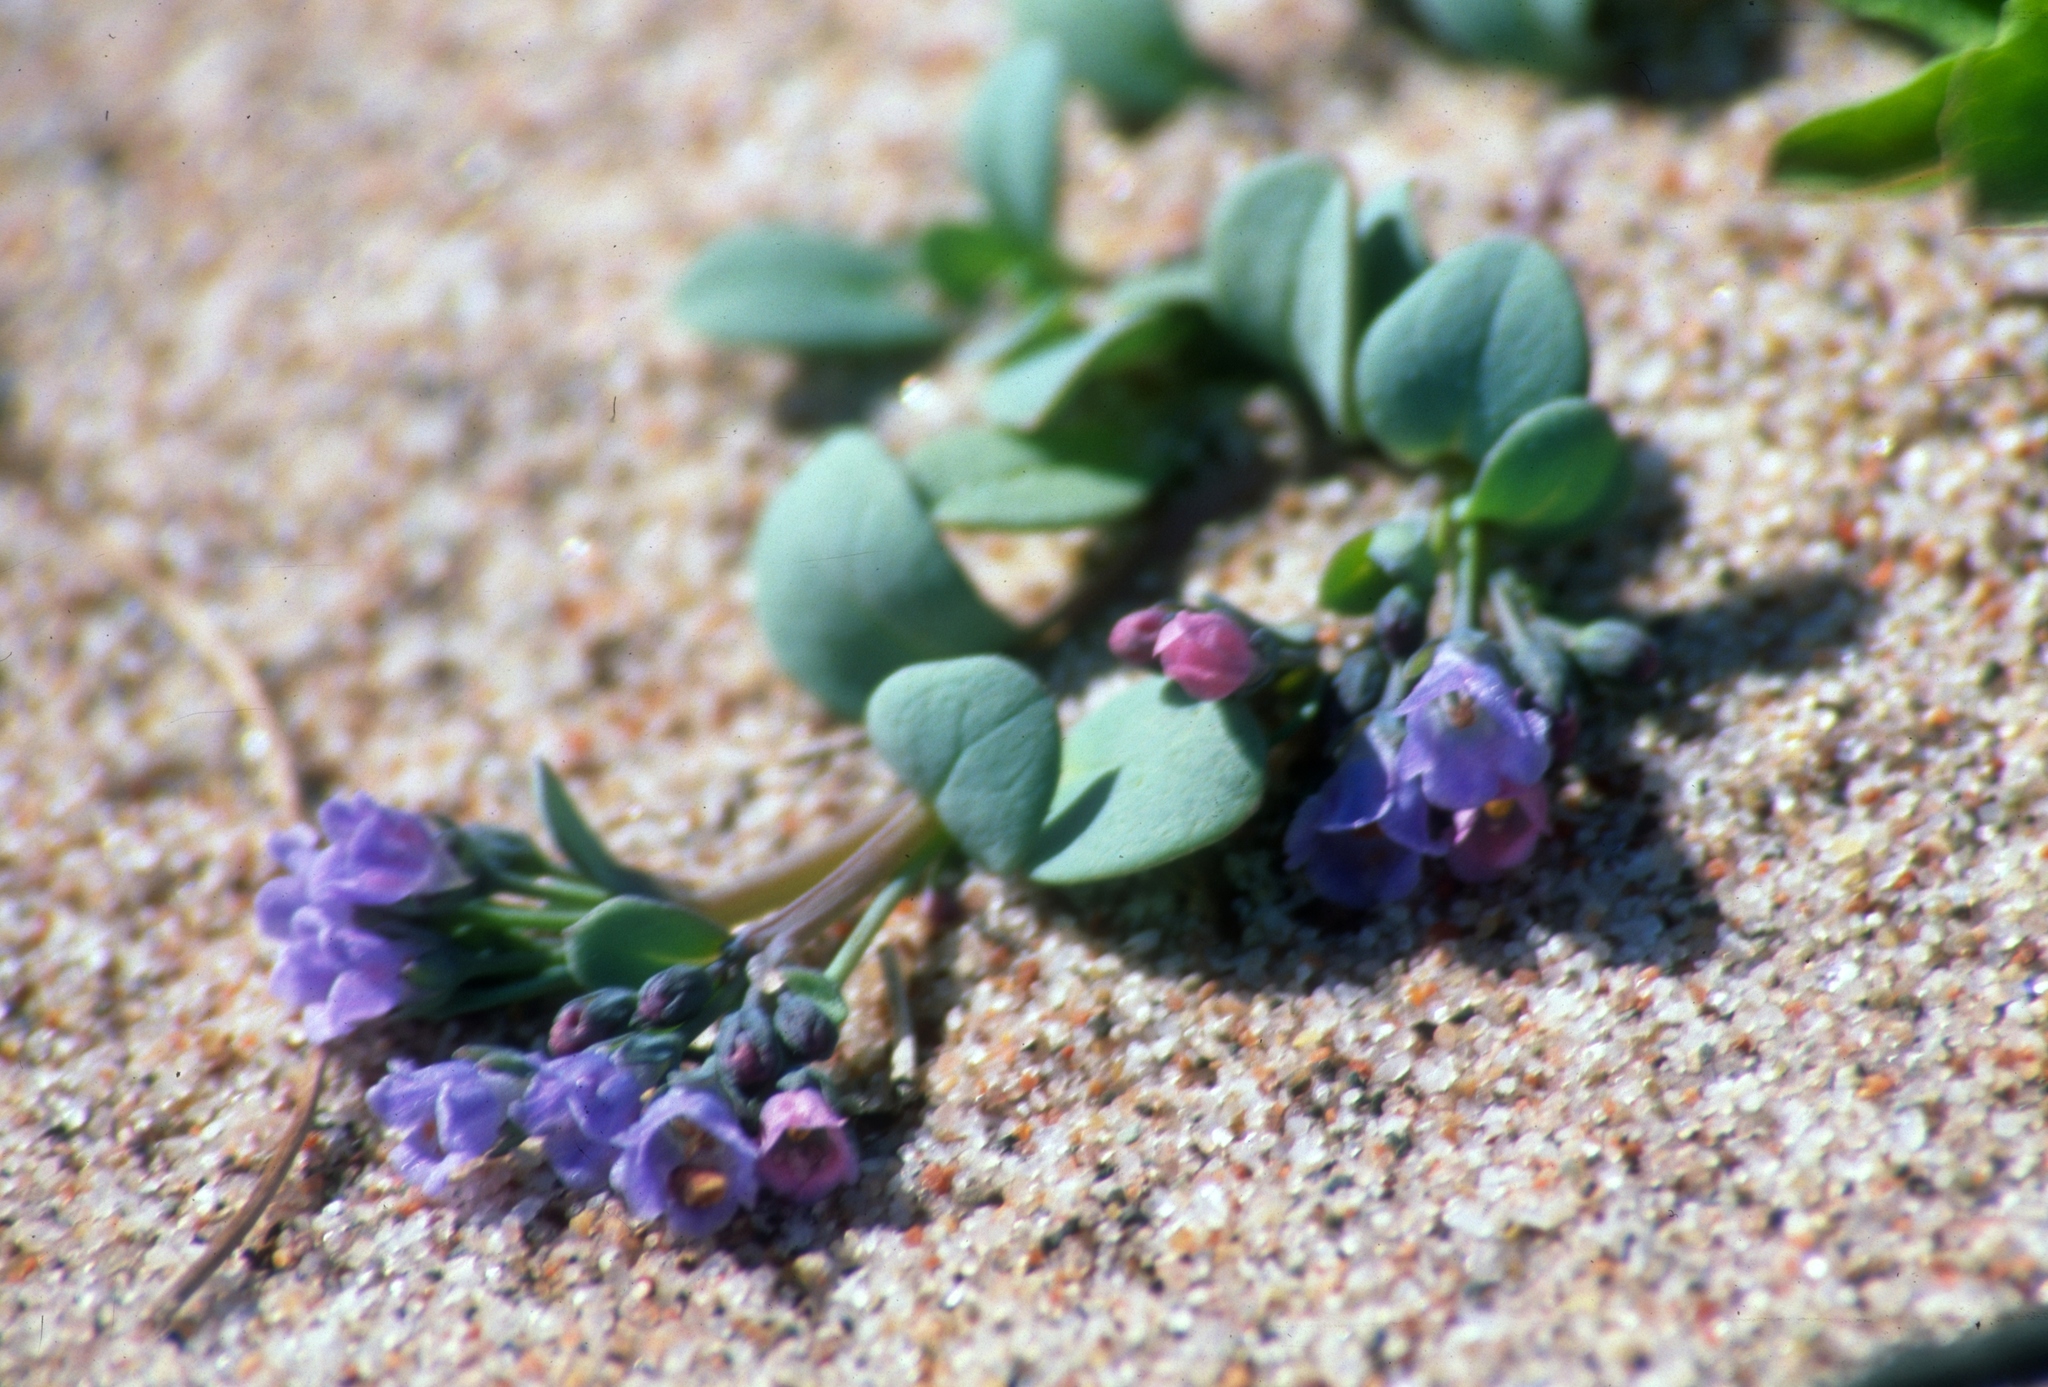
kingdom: Plantae
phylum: Tracheophyta
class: Magnoliopsida
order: Boraginales
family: Boraginaceae
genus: Mertensia
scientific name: Mertensia maritima
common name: Oysterplant
